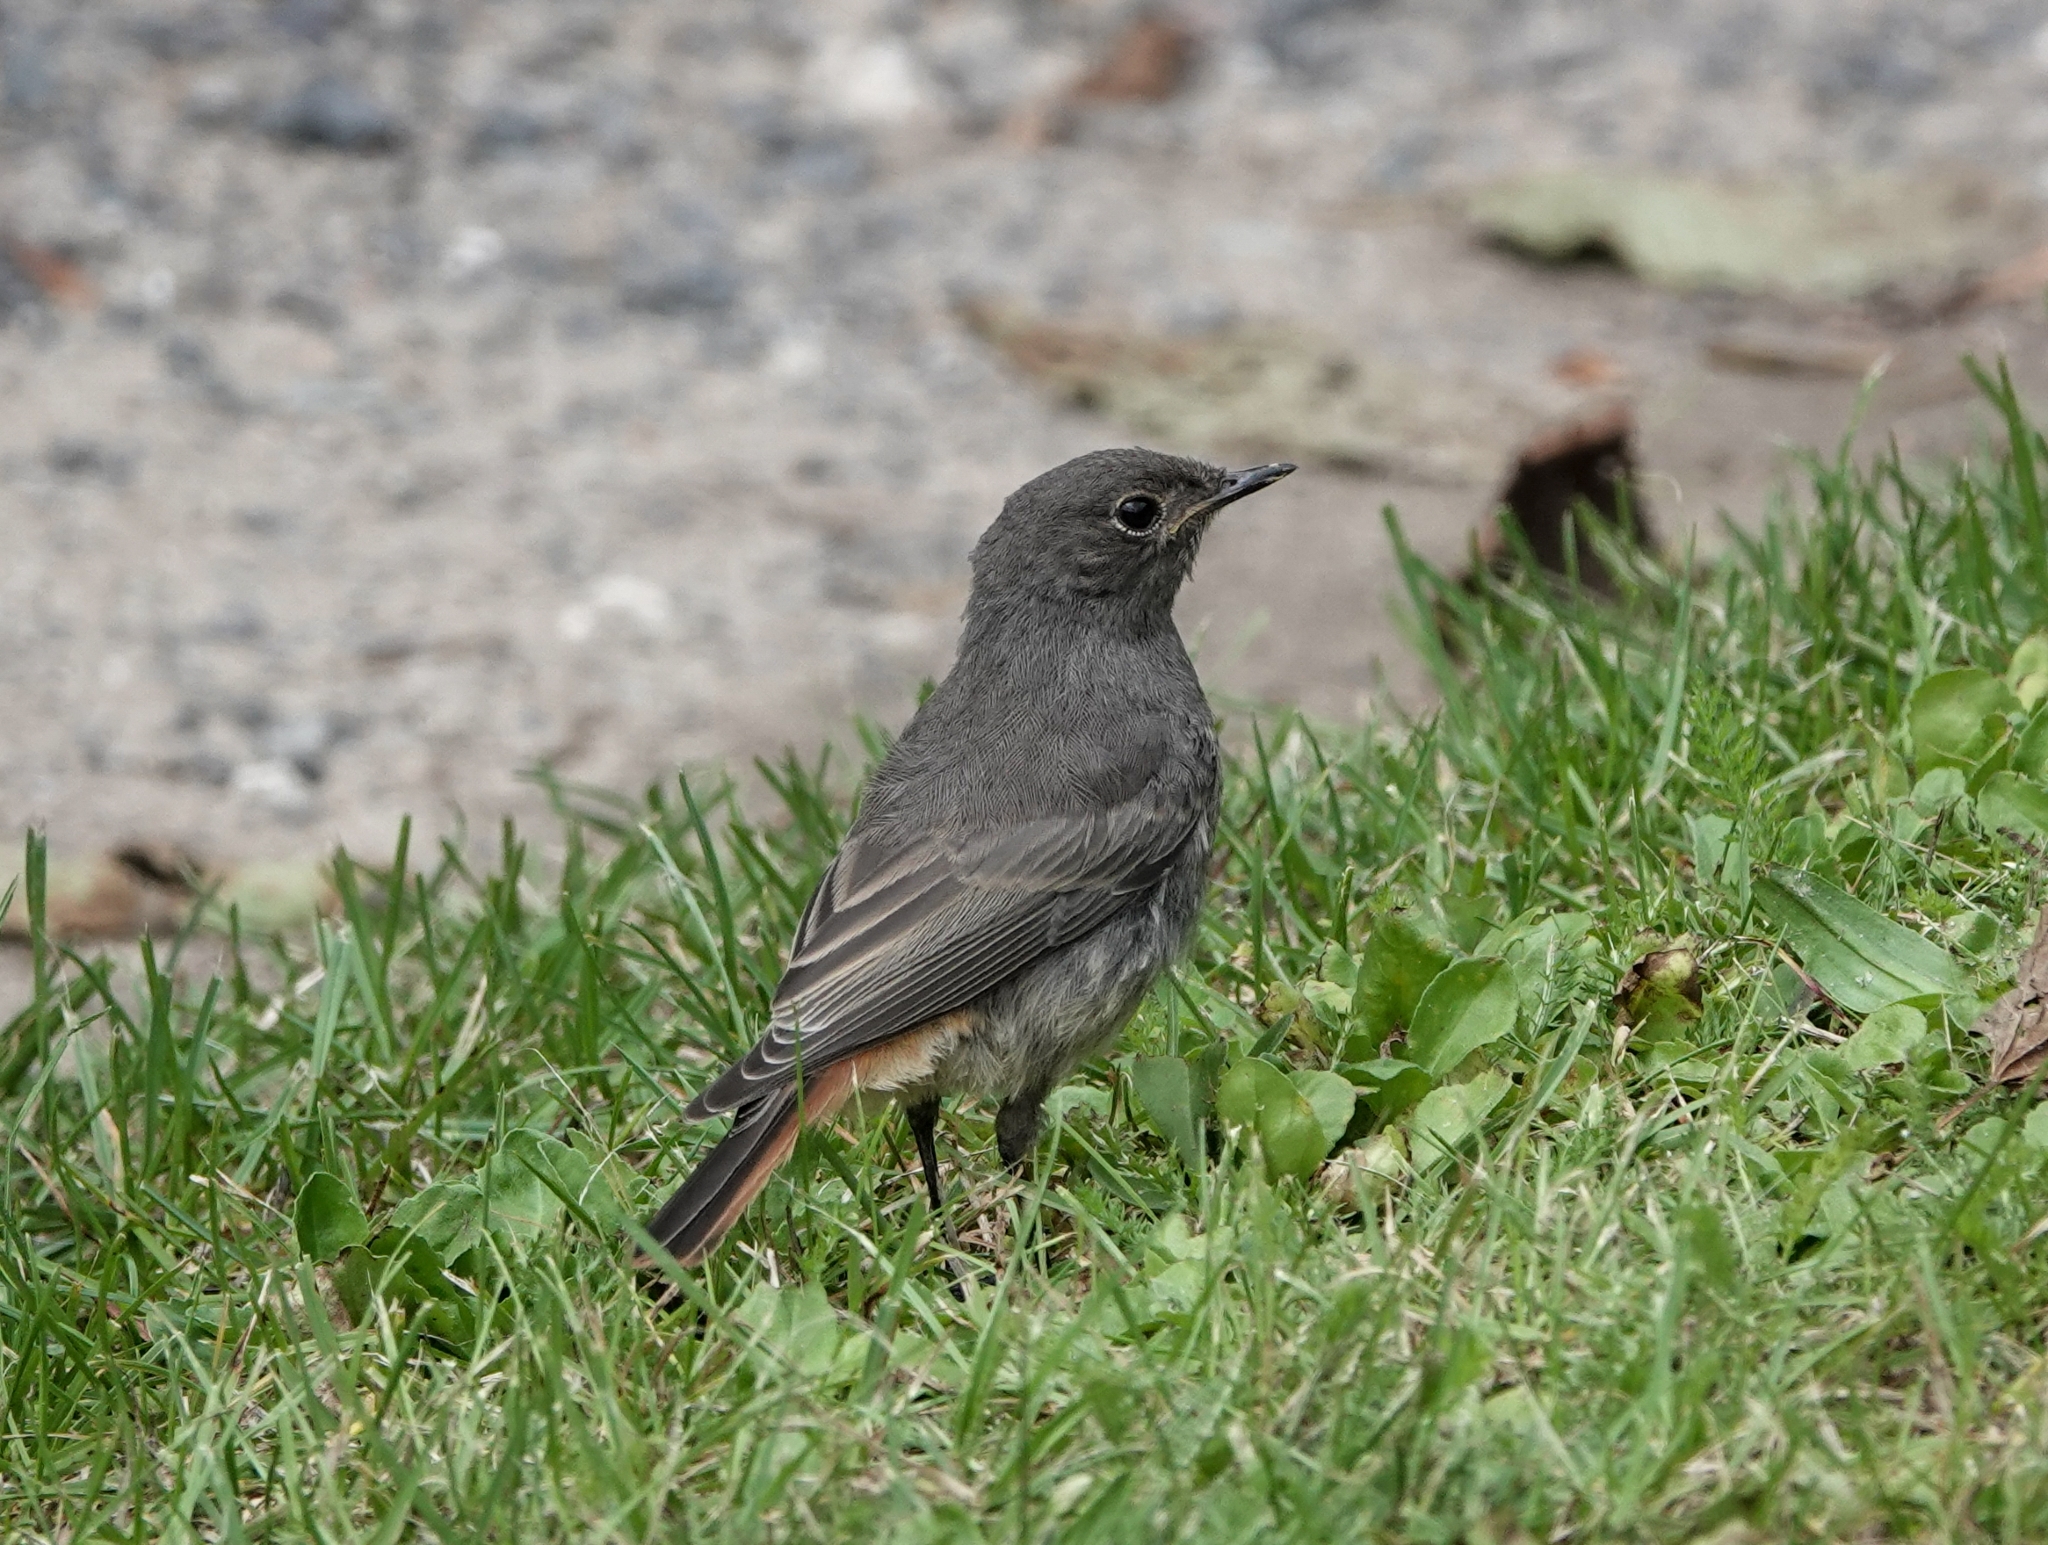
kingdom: Animalia
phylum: Chordata
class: Aves
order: Passeriformes
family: Muscicapidae
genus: Phoenicurus
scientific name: Phoenicurus ochruros
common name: Black redstart
